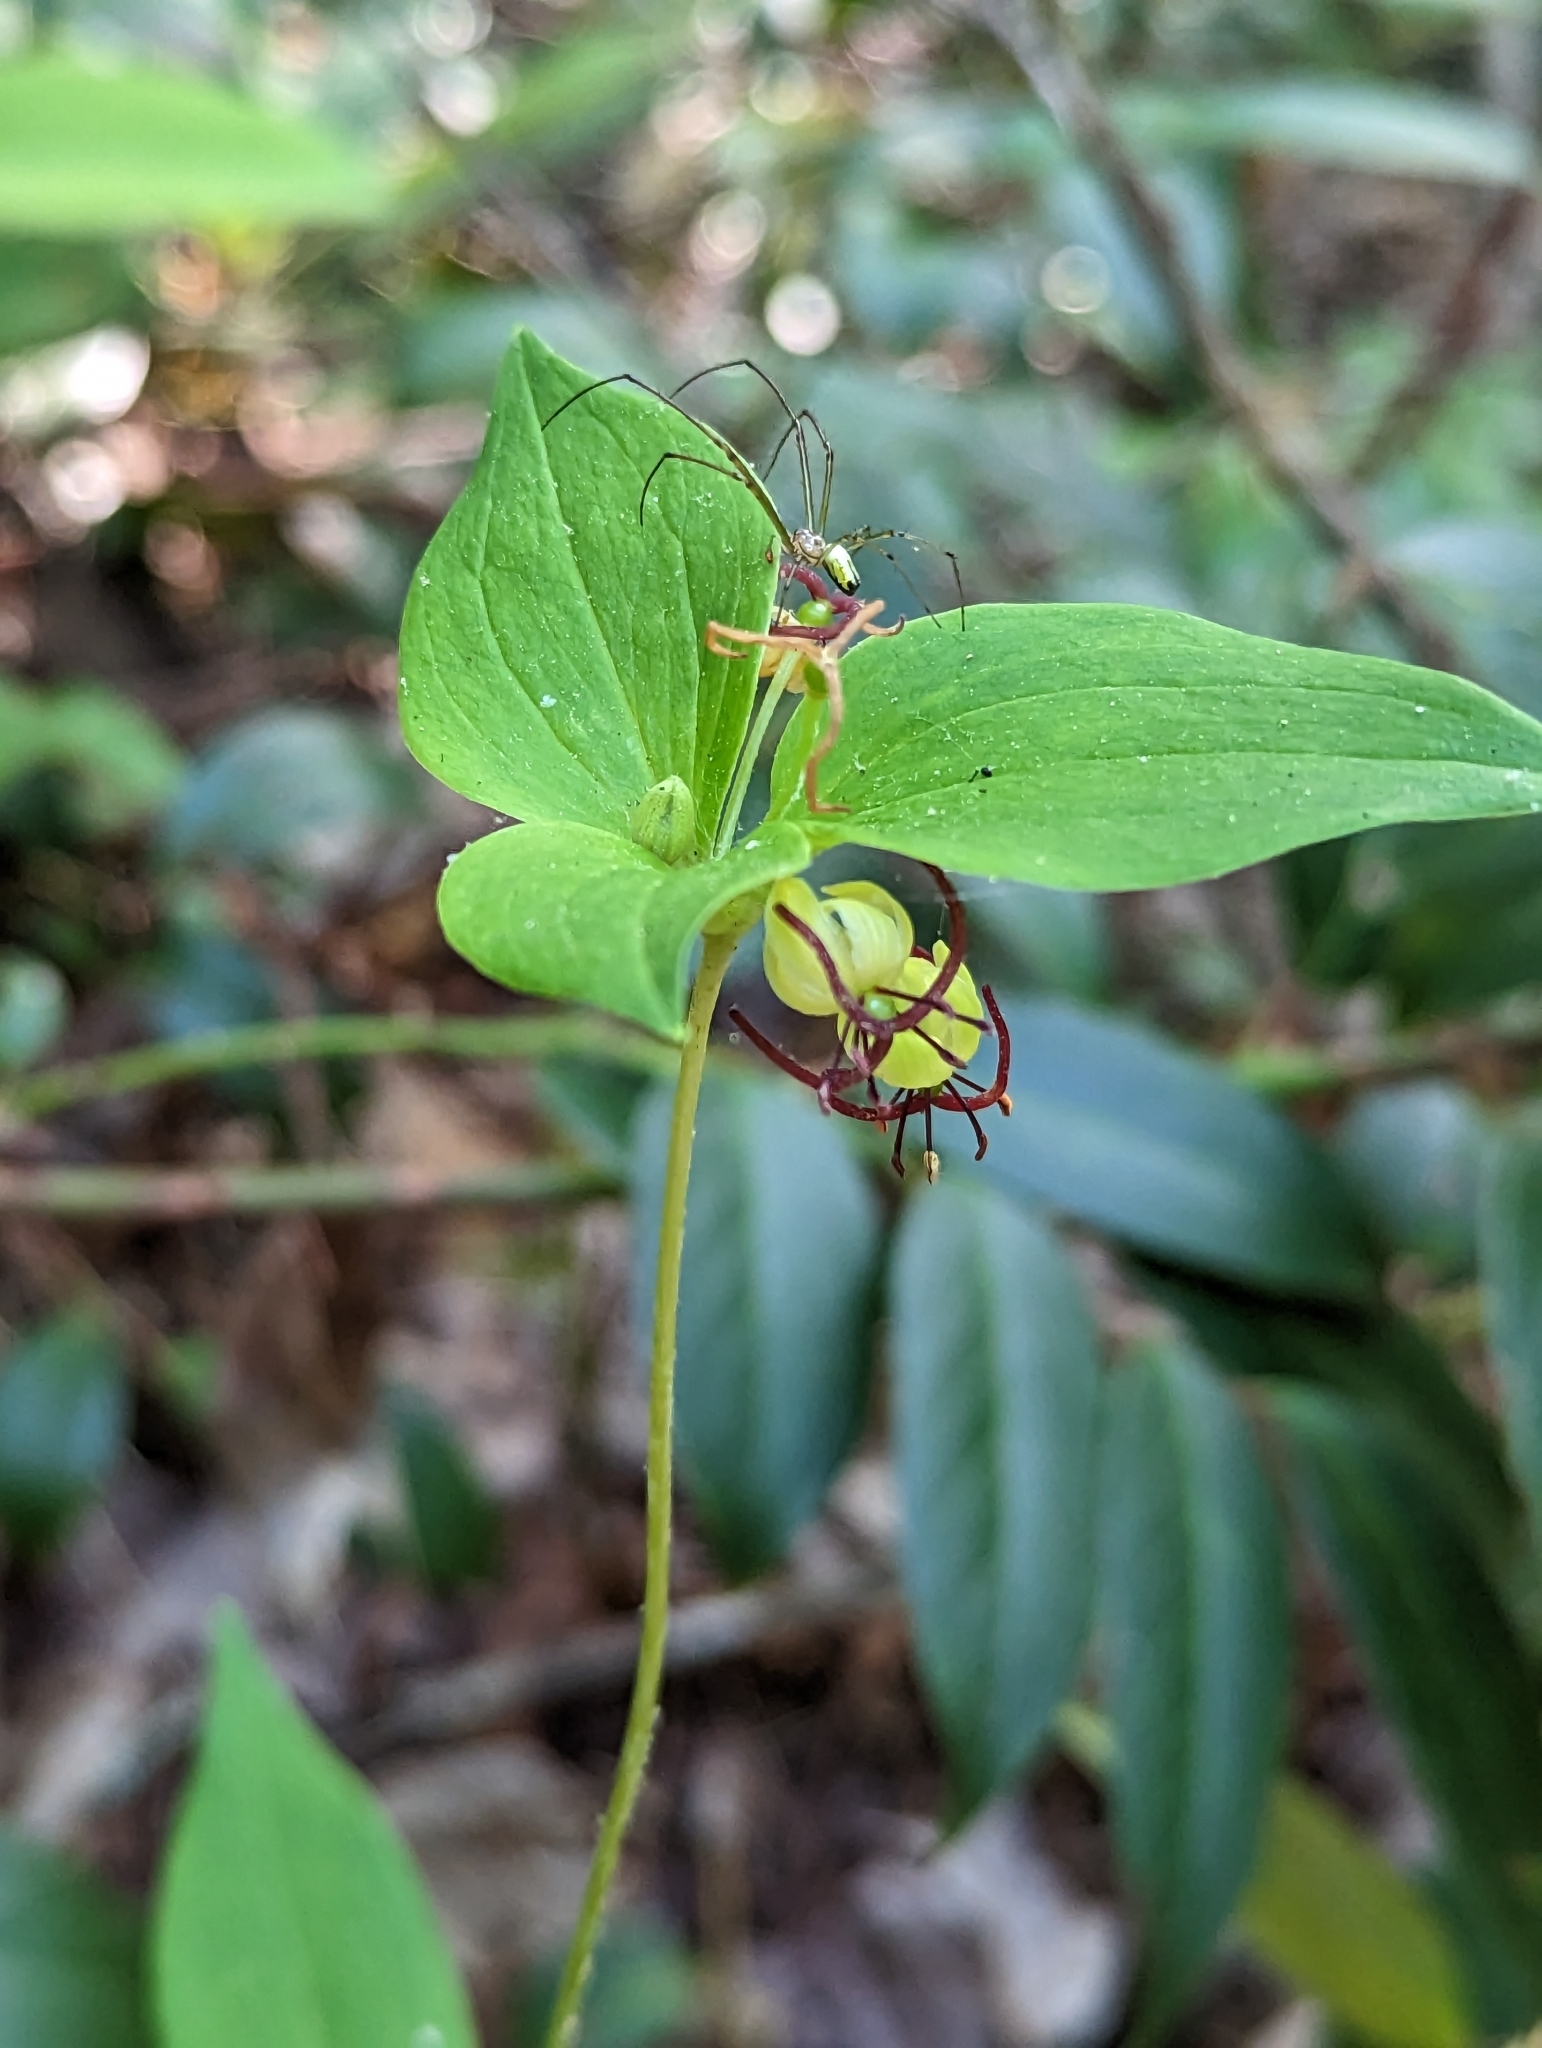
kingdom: Plantae
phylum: Tracheophyta
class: Liliopsida
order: Liliales
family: Liliaceae
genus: Medeola
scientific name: Medeola virginiana
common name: Indian cucumber-root
